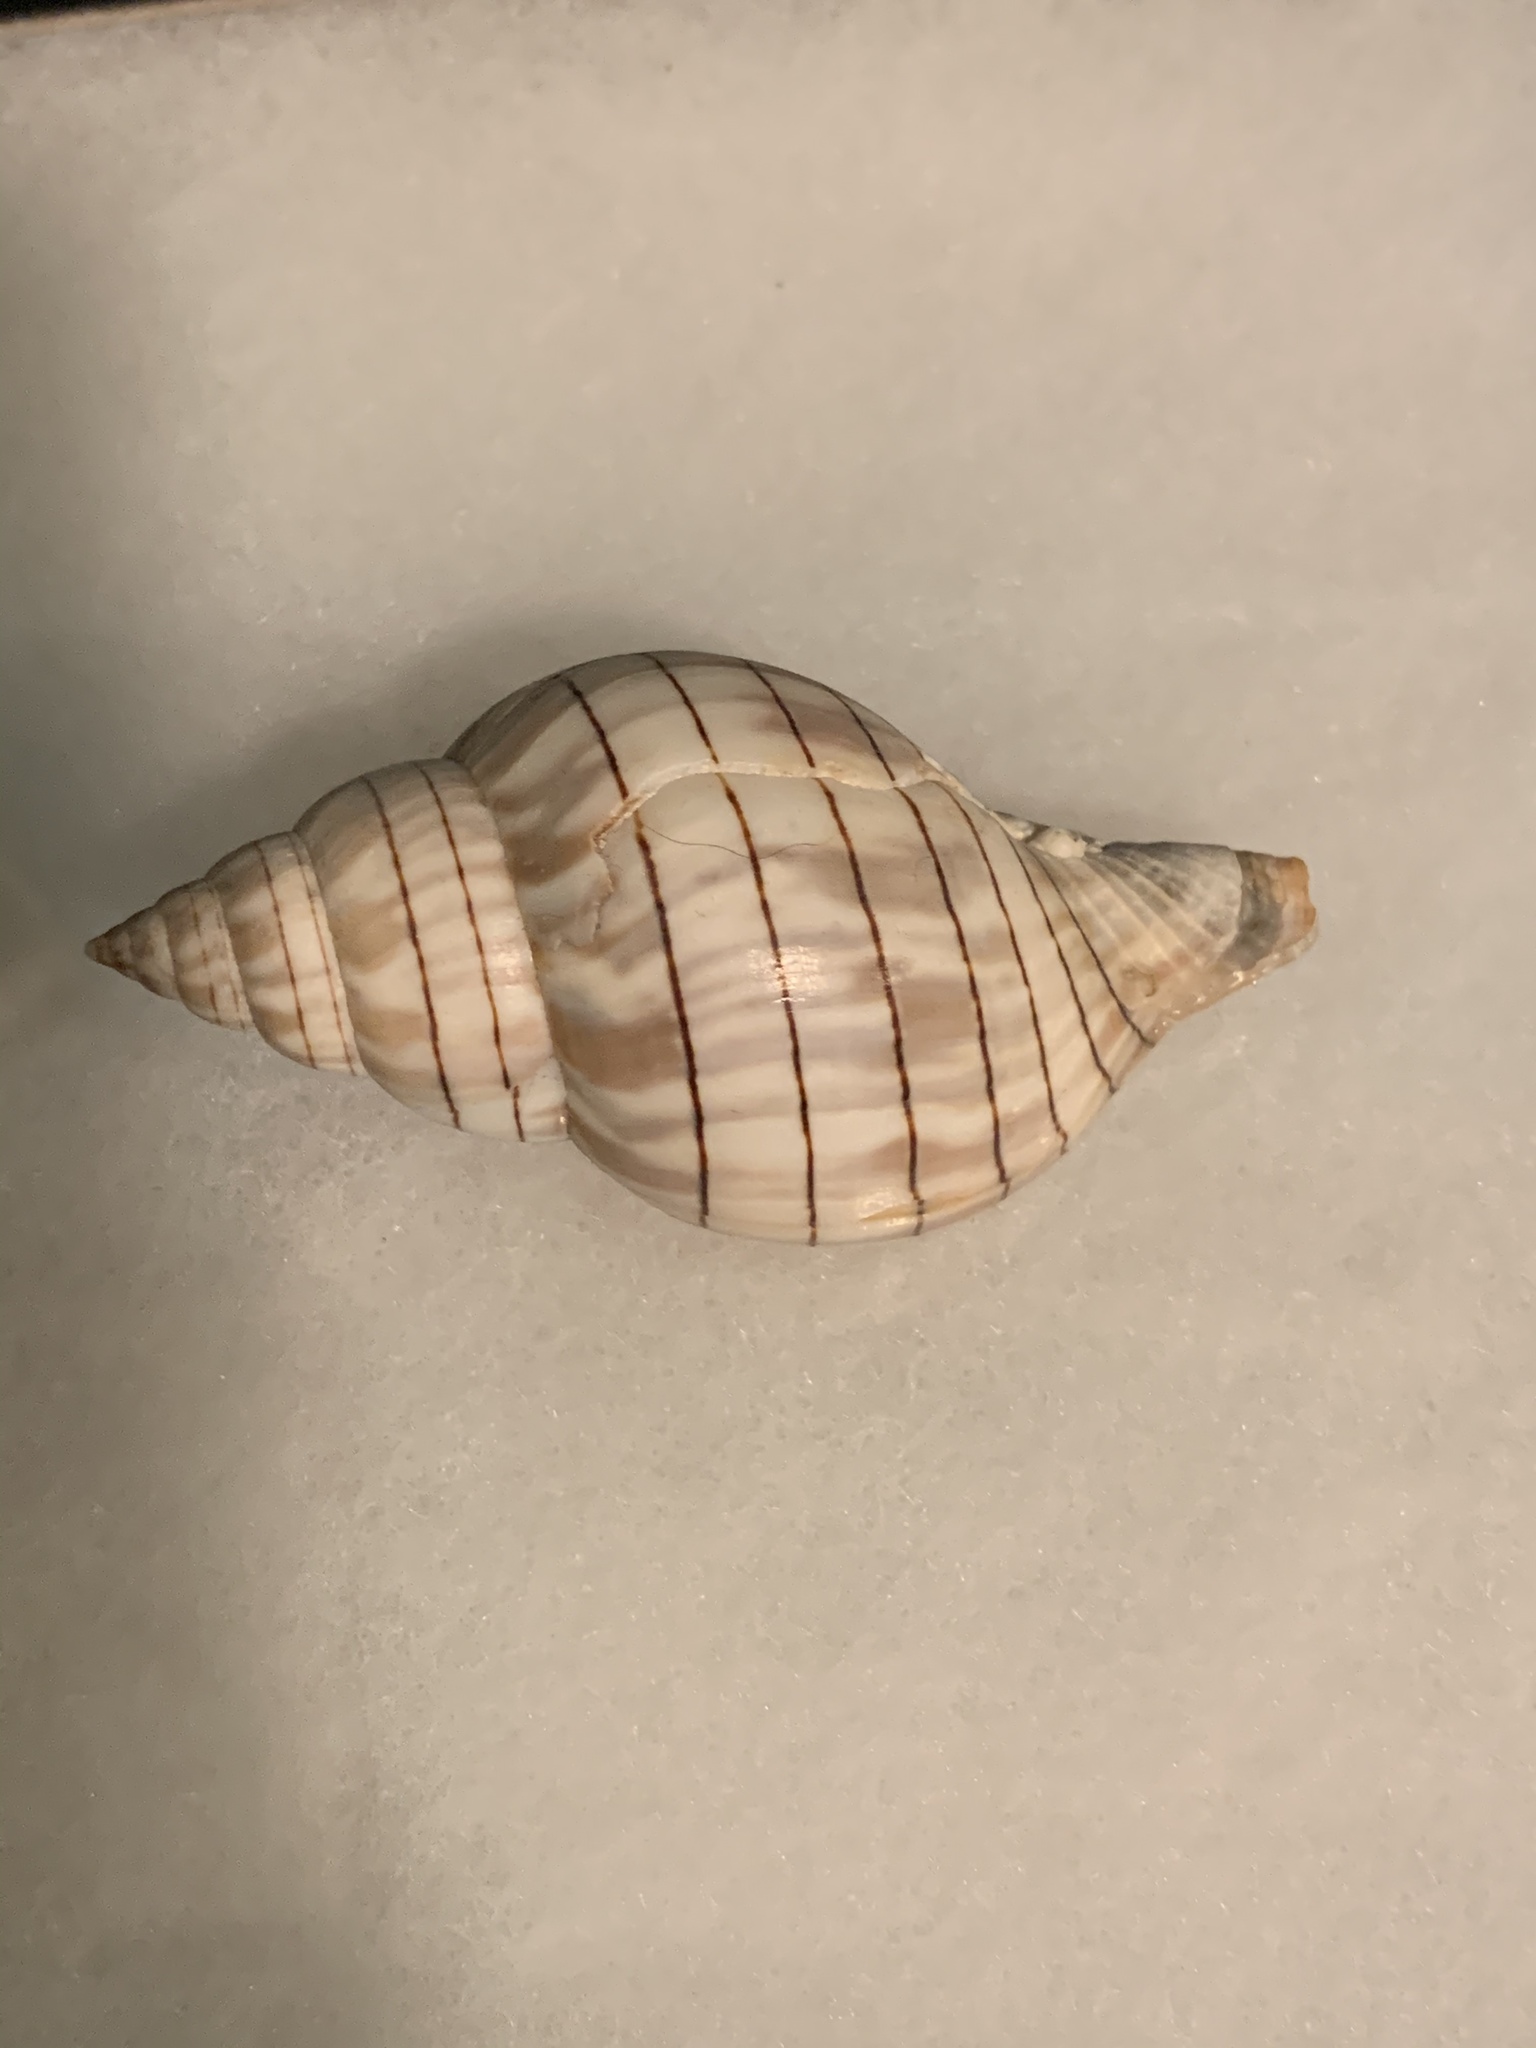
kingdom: Animalia
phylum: Mollusca
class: Gastropoda
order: Neogastropoda
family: Fasciolariidae
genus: Cinctura
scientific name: Cinctura hunteria
